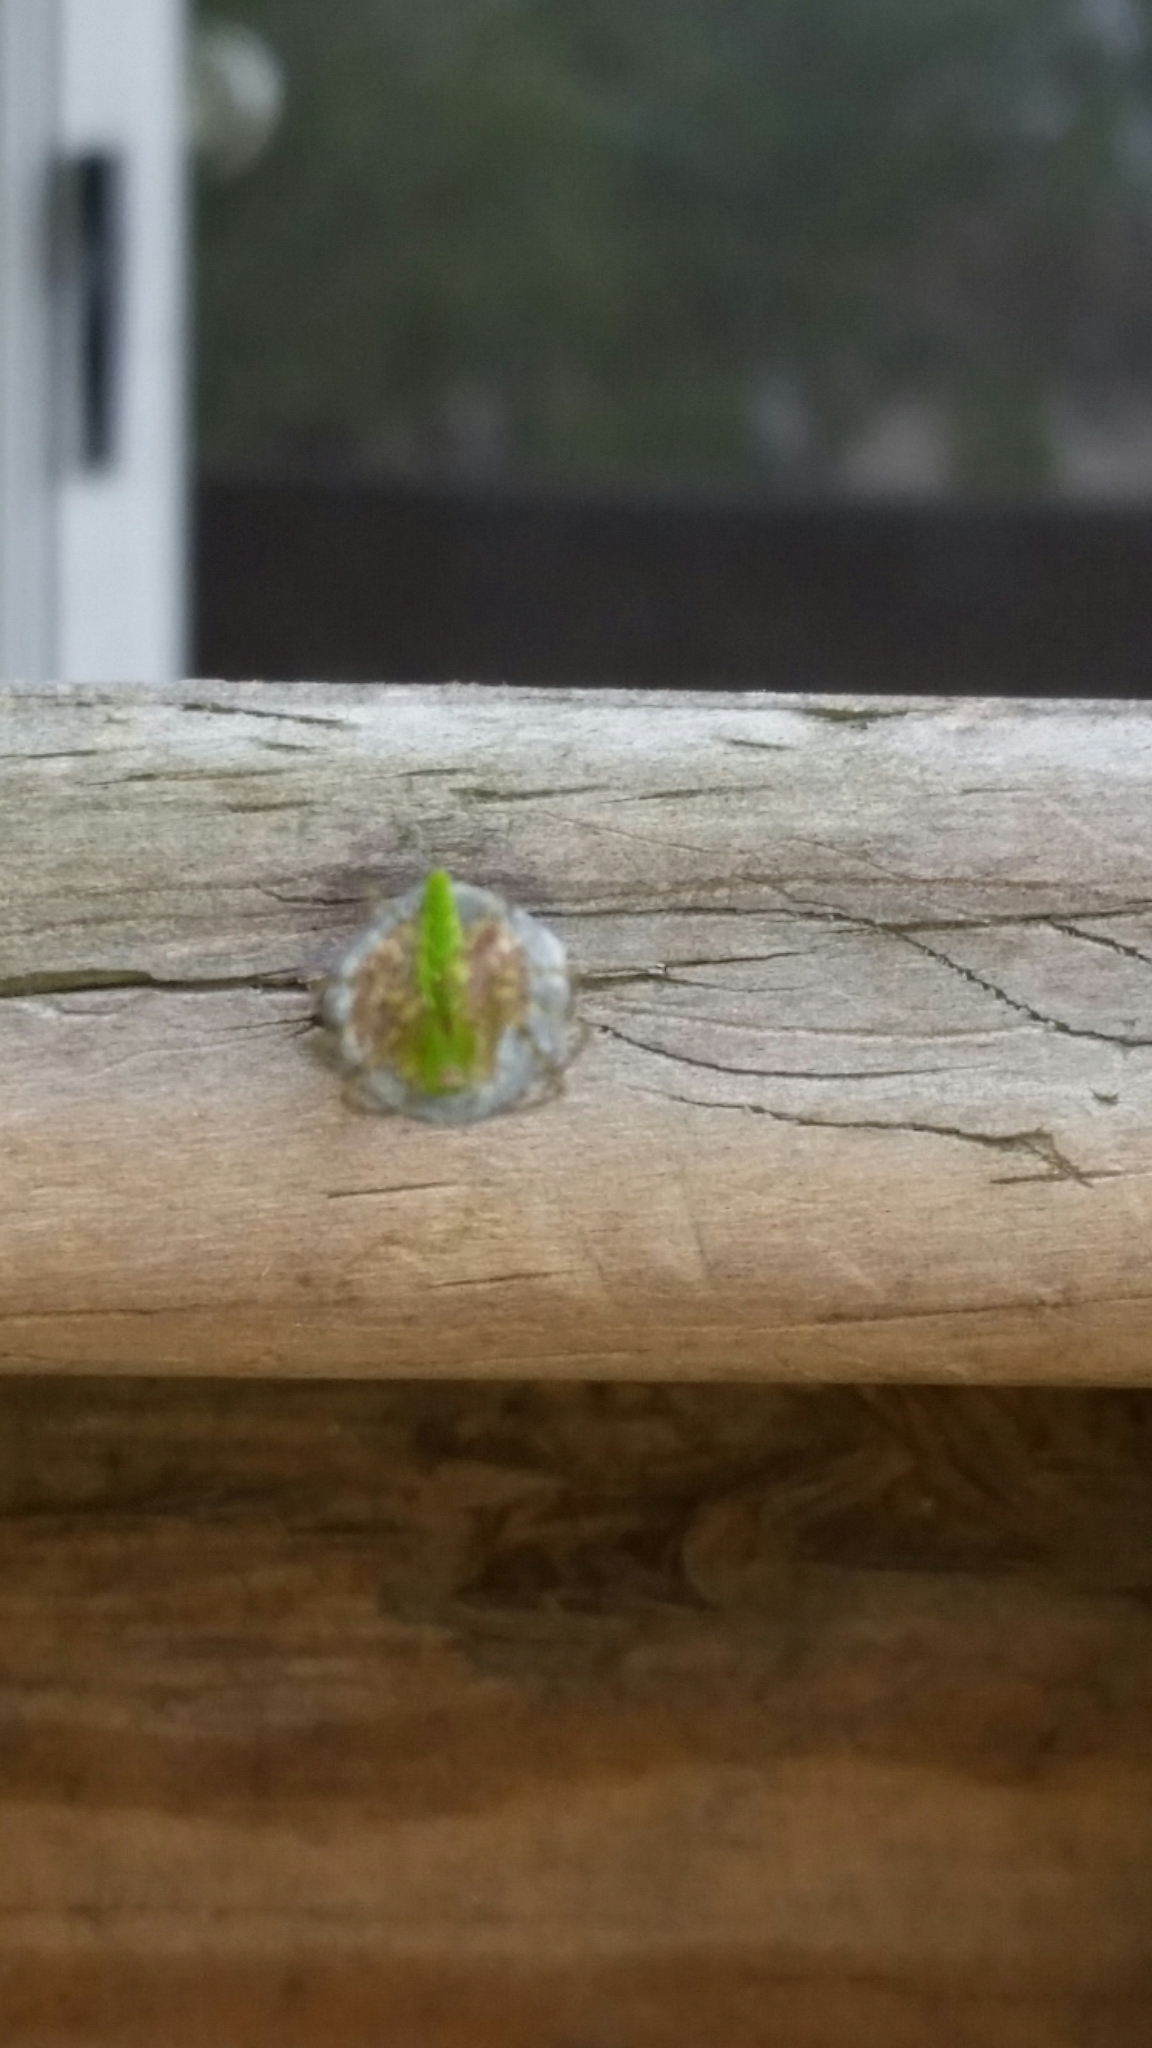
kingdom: Animalia
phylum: Arthropoda
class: Arachnida
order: Araneae
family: Oxyopidae
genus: Peucetia
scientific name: Peucetia viridans
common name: Lynx spiders
